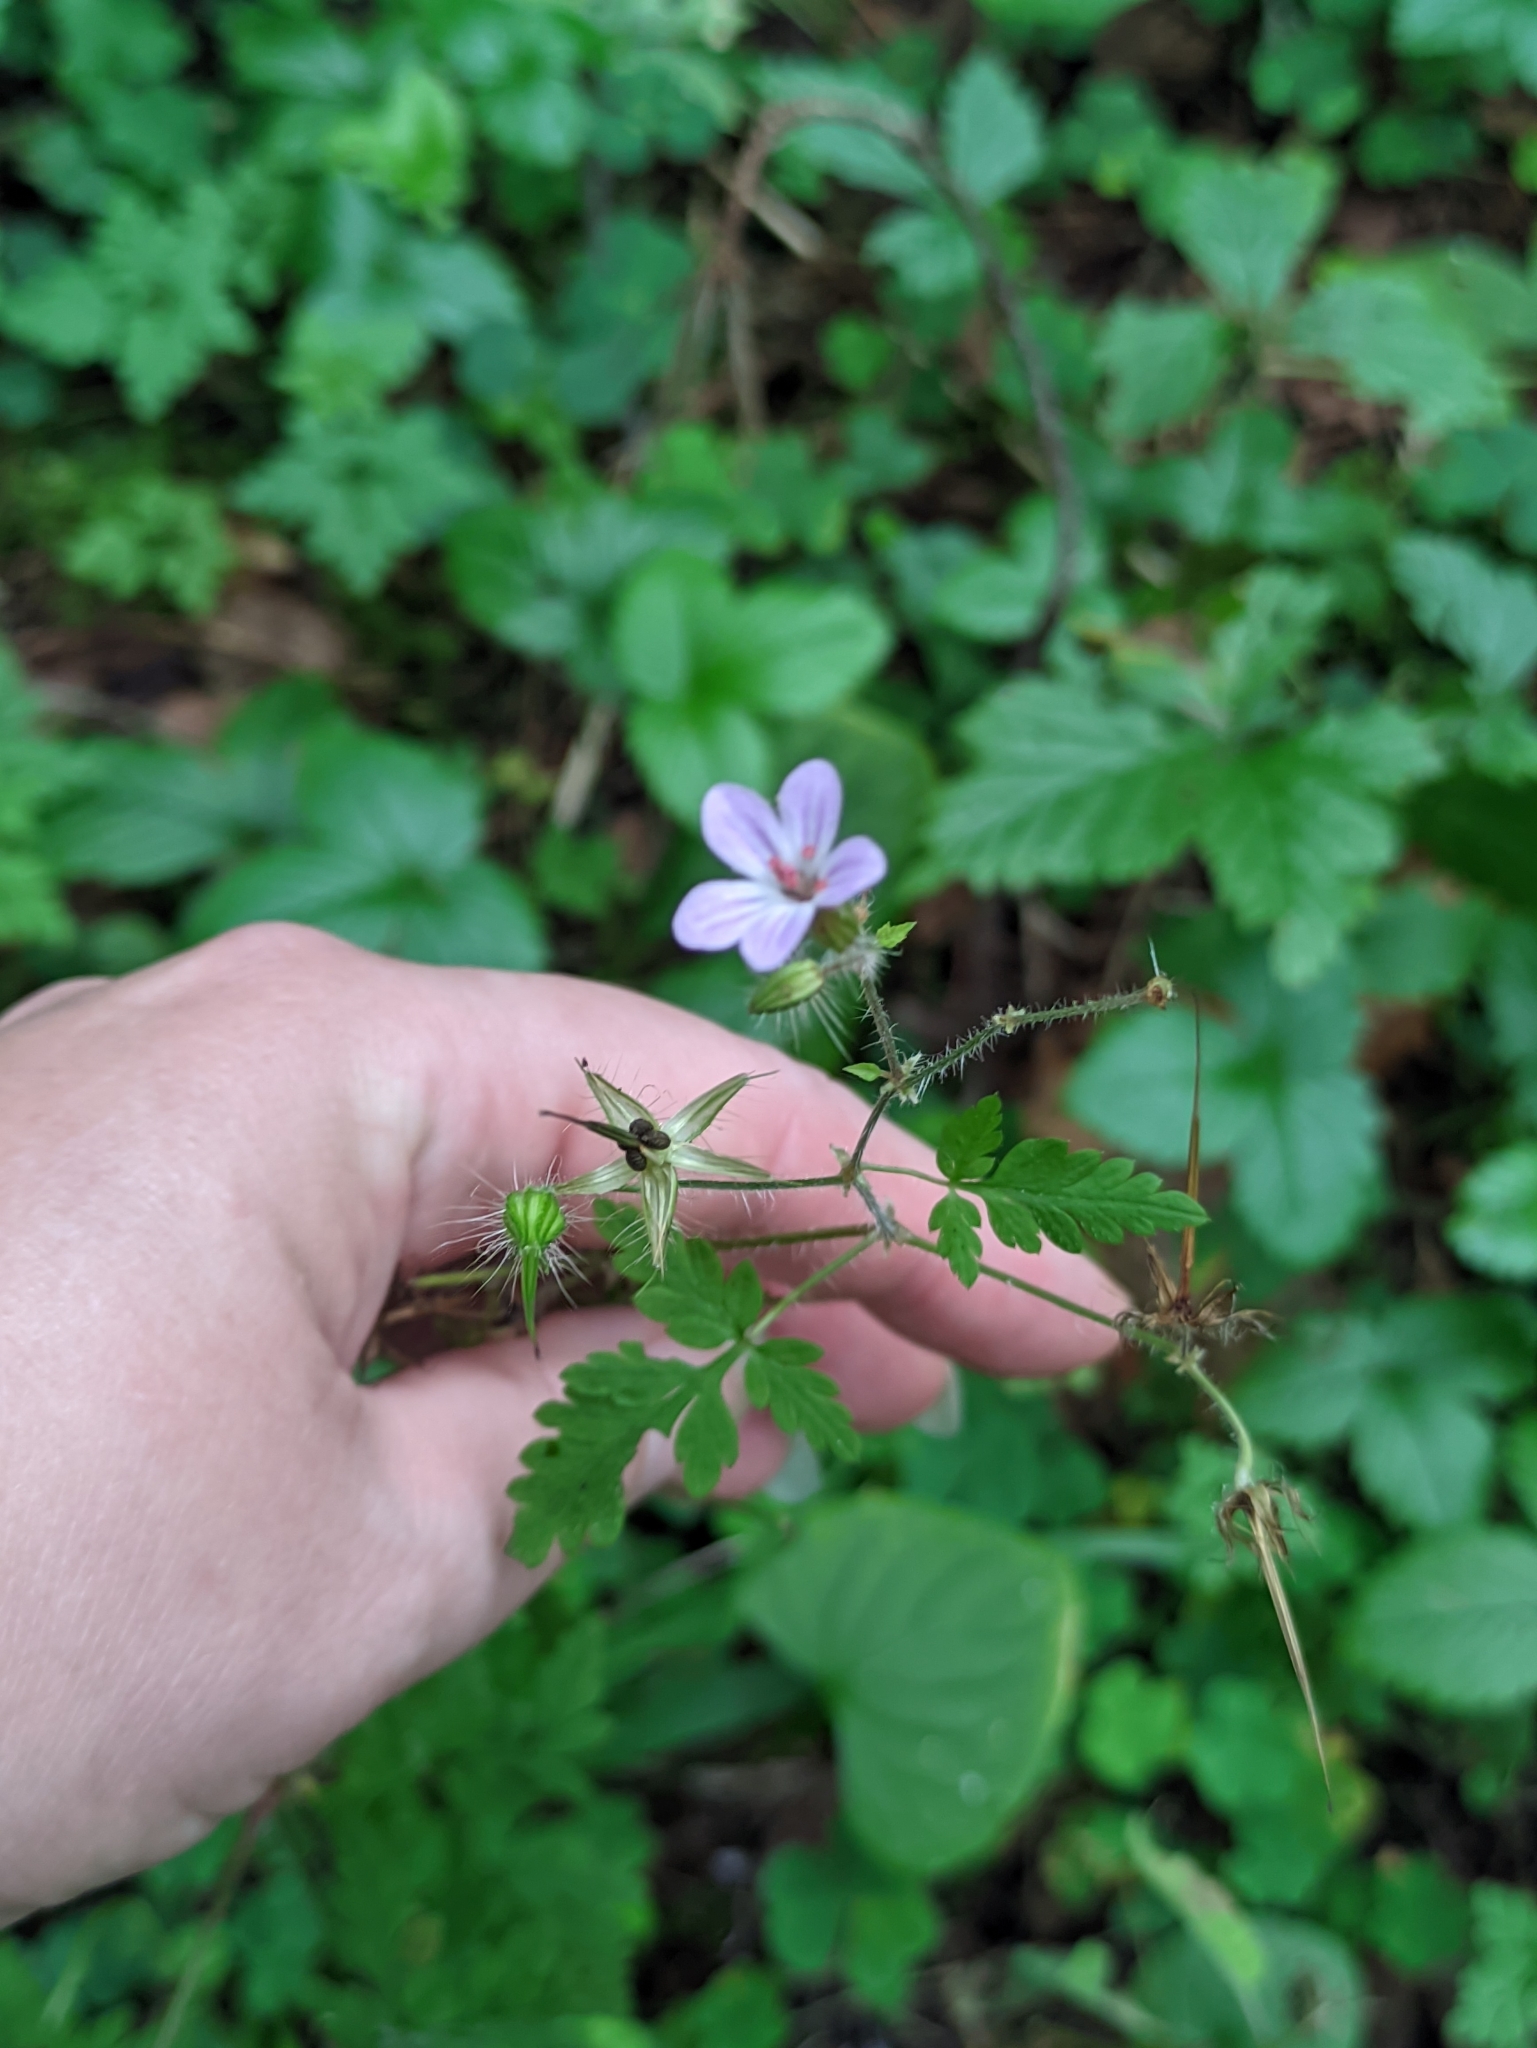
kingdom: Plantae
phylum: Tracheophyta
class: Magnoliopsida
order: Geraniales
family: Geraniaceae
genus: Geranium
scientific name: Geranium robertianum
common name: Herb-robert
